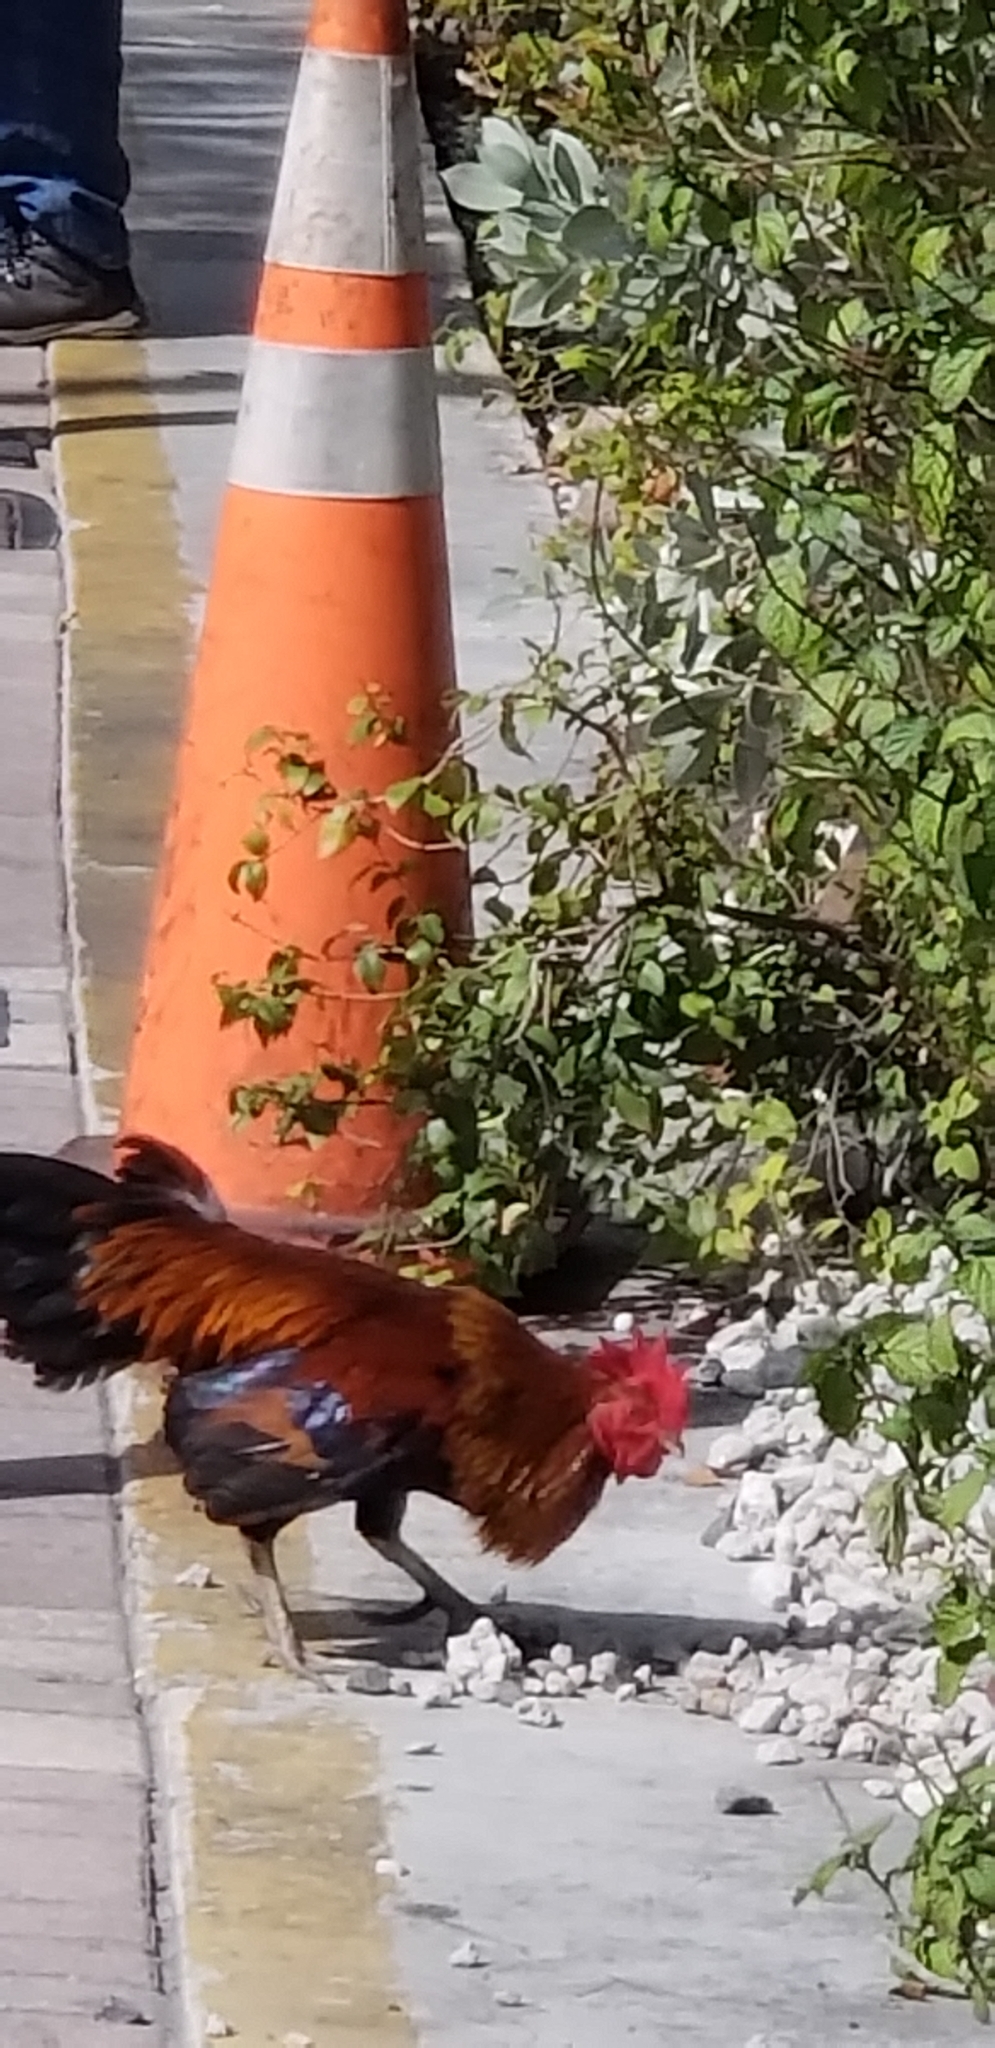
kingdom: Animalia
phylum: Chordata
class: Aves
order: Galliformes
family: Phasianidae
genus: Gallus
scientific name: Gallus gallus
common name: Red junglefowl
